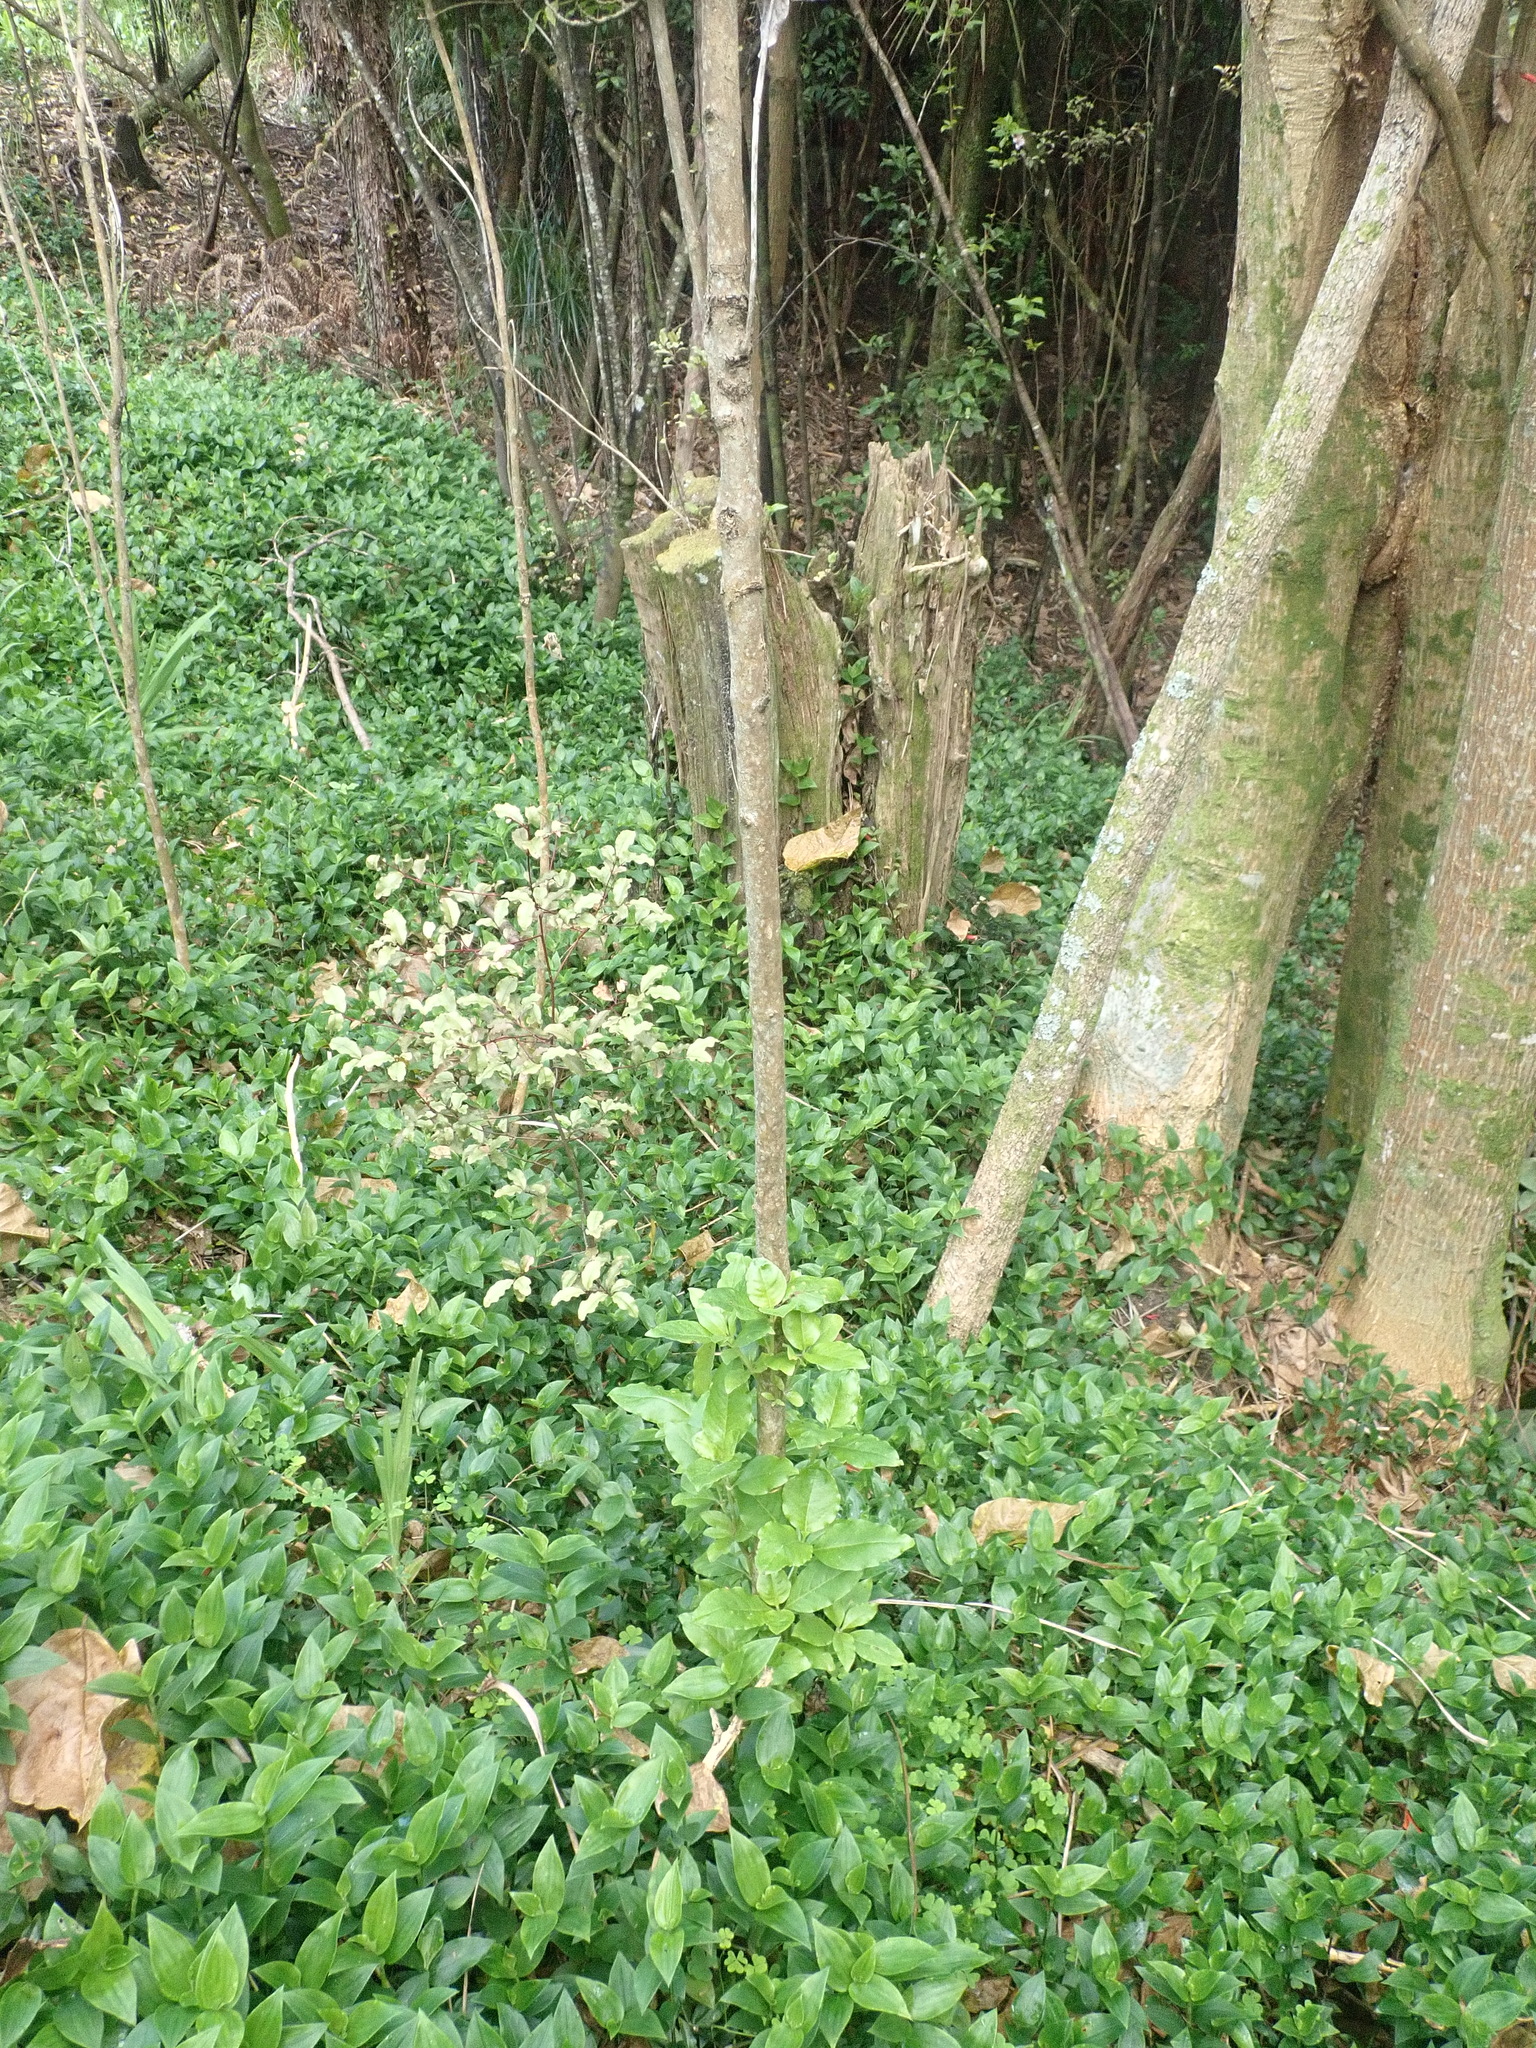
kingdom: Plantae
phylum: Tracheophyta
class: Magnoliopsida
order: Ericales
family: Primulaceae
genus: Myrsine
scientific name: Myrsine australis
